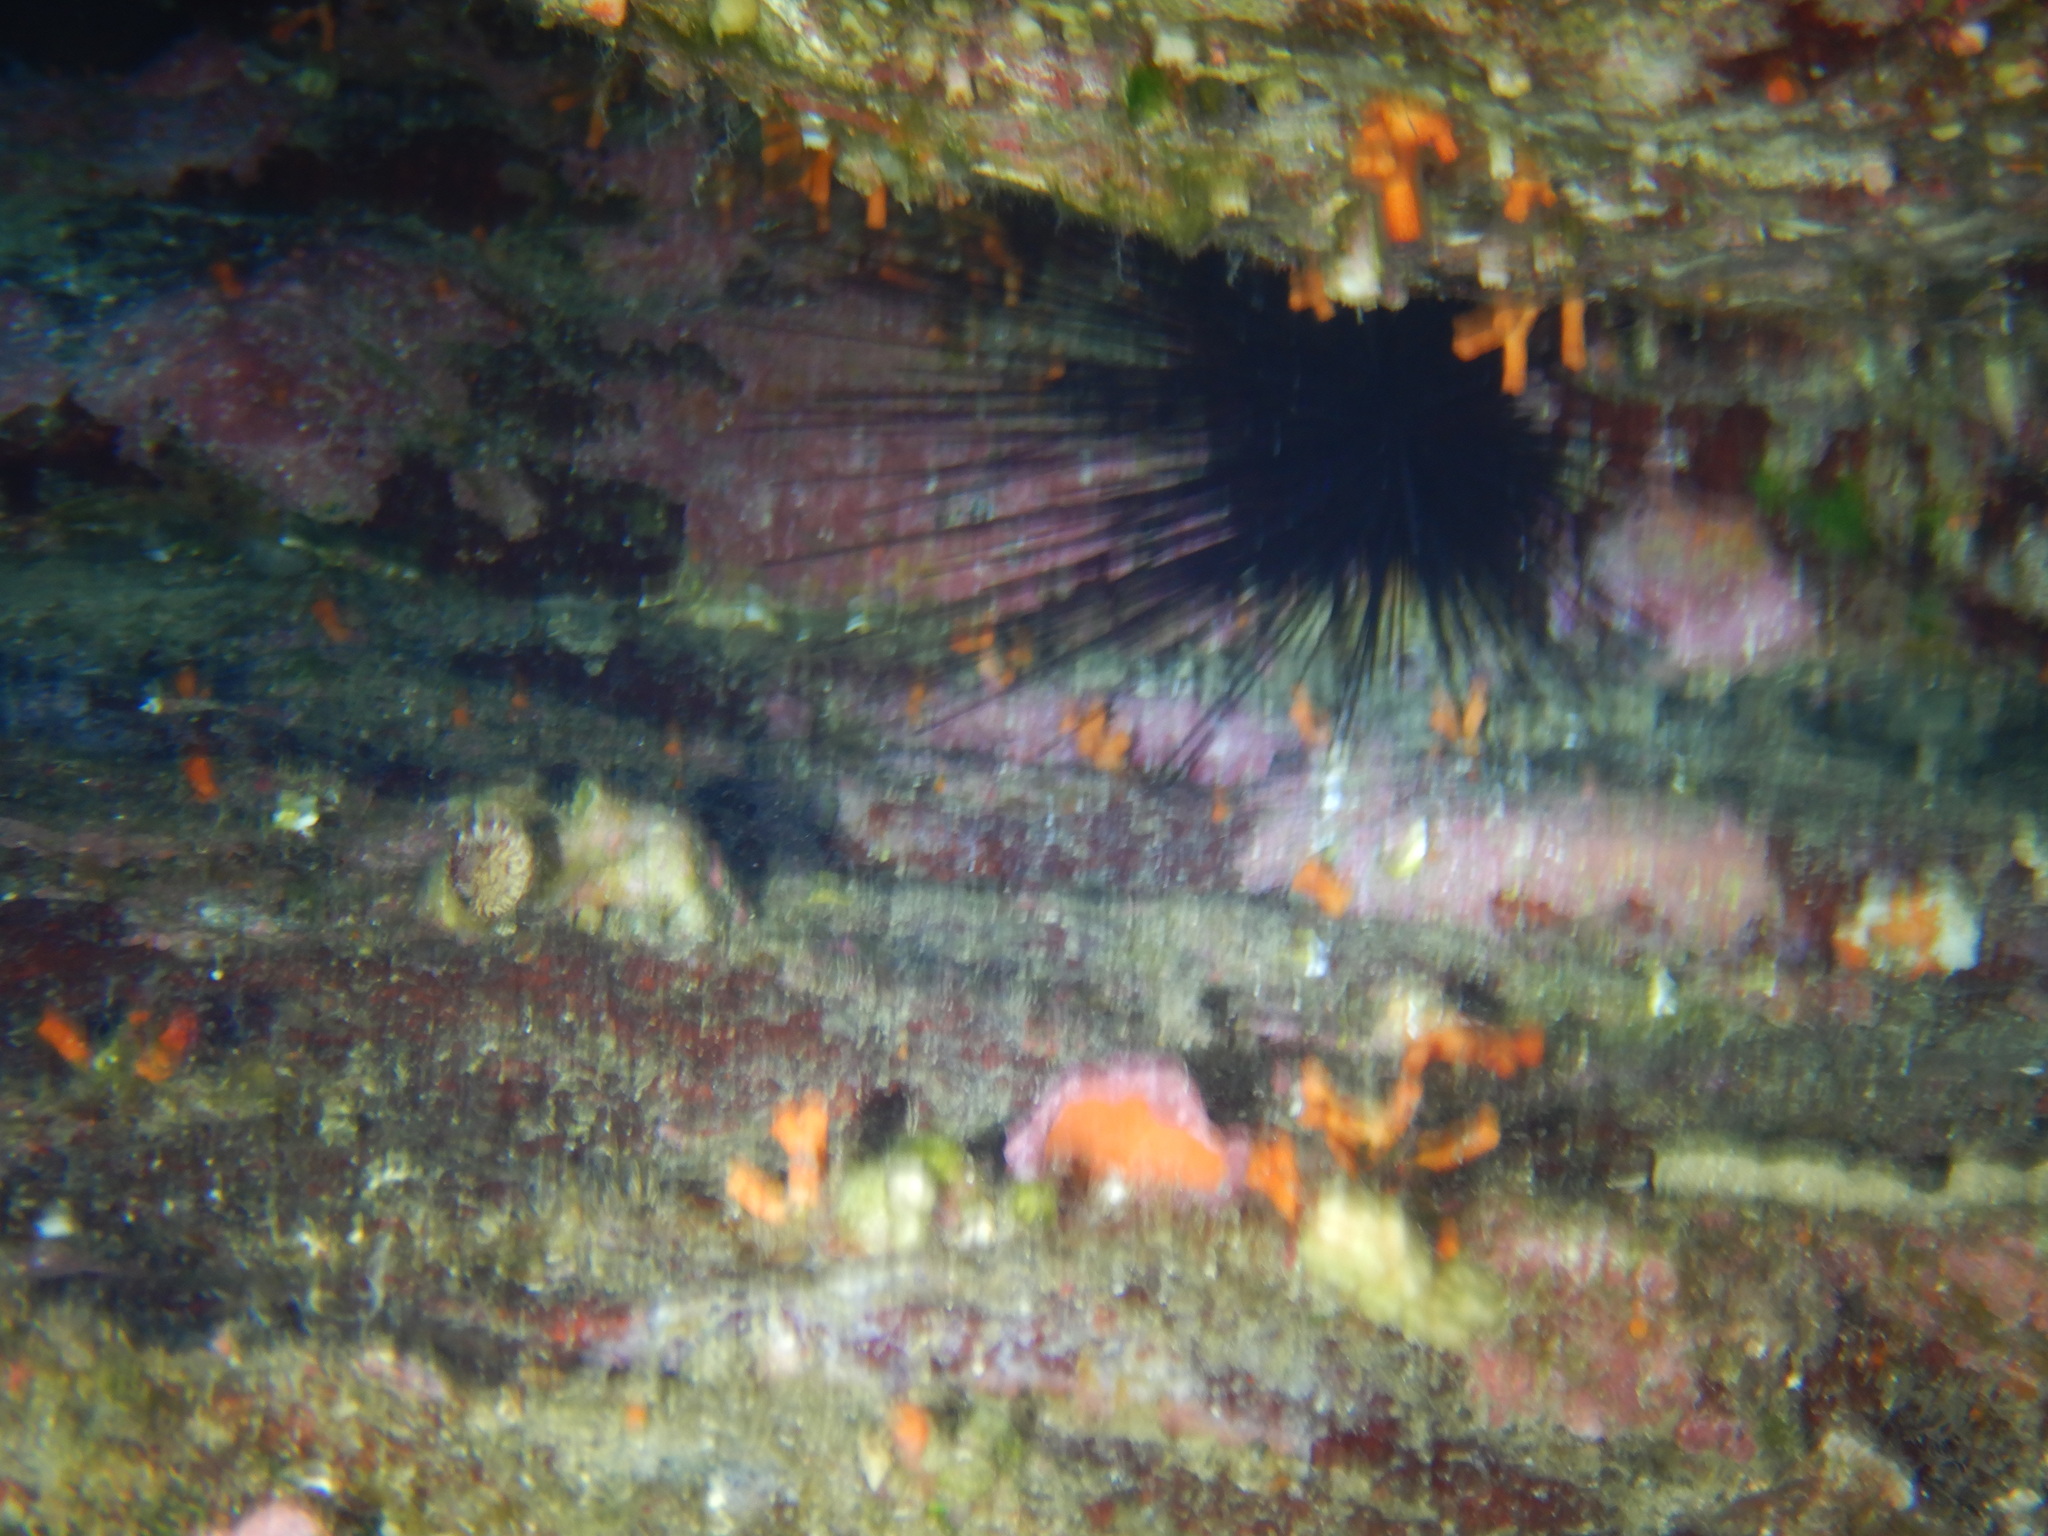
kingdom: Animalia
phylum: Echinodermata
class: Echinoidea
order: Diadematoida
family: Diadematidae
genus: Centrostephanus
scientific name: Centrostephanus longispinus
